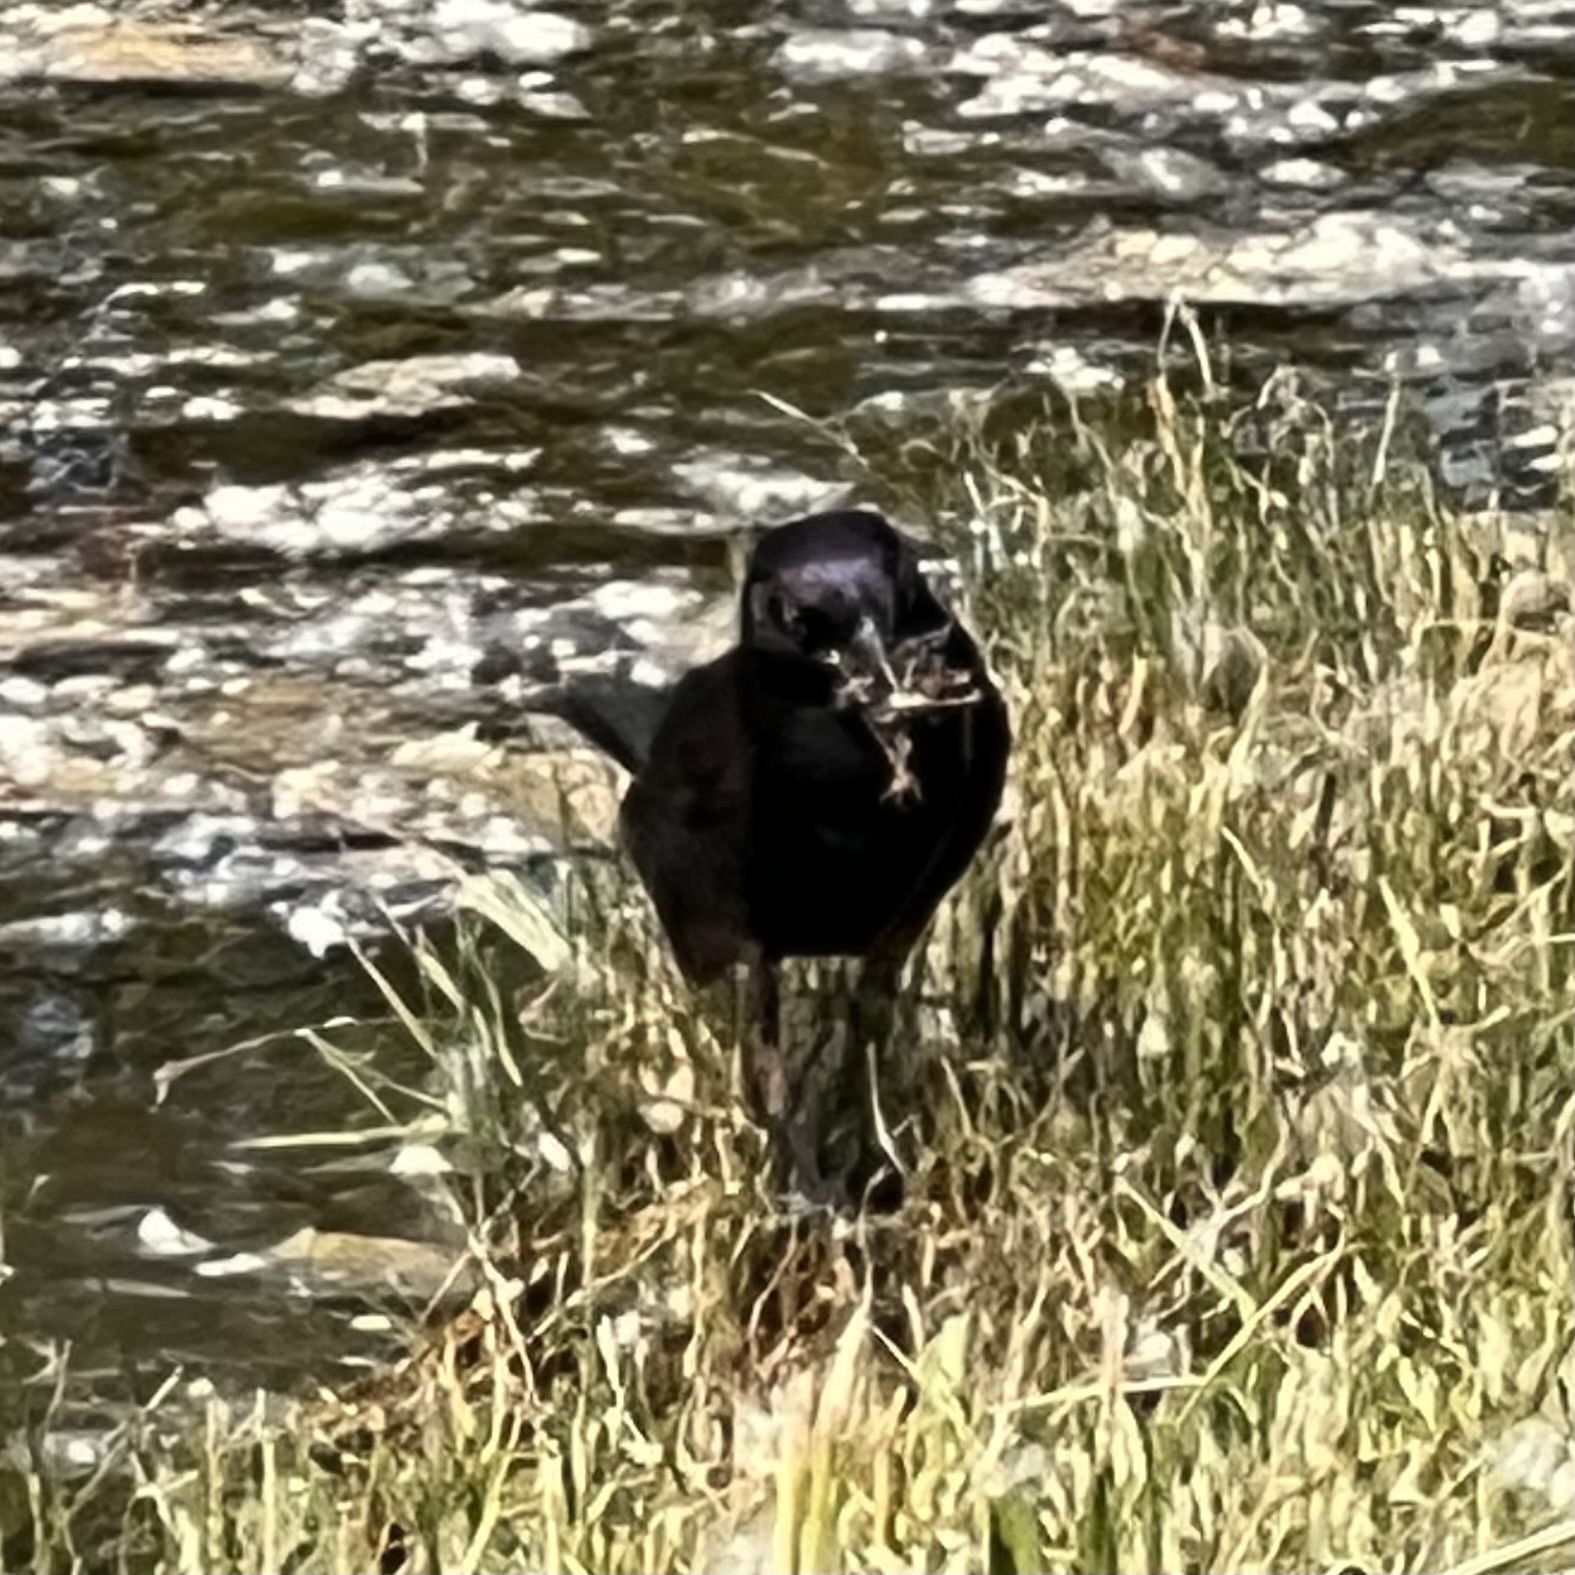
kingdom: Animalia
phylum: Chordata
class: Aves
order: Passeriformes
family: Icteridae
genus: Quiscalus
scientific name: Quiscalus quiscula
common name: Common grackle
